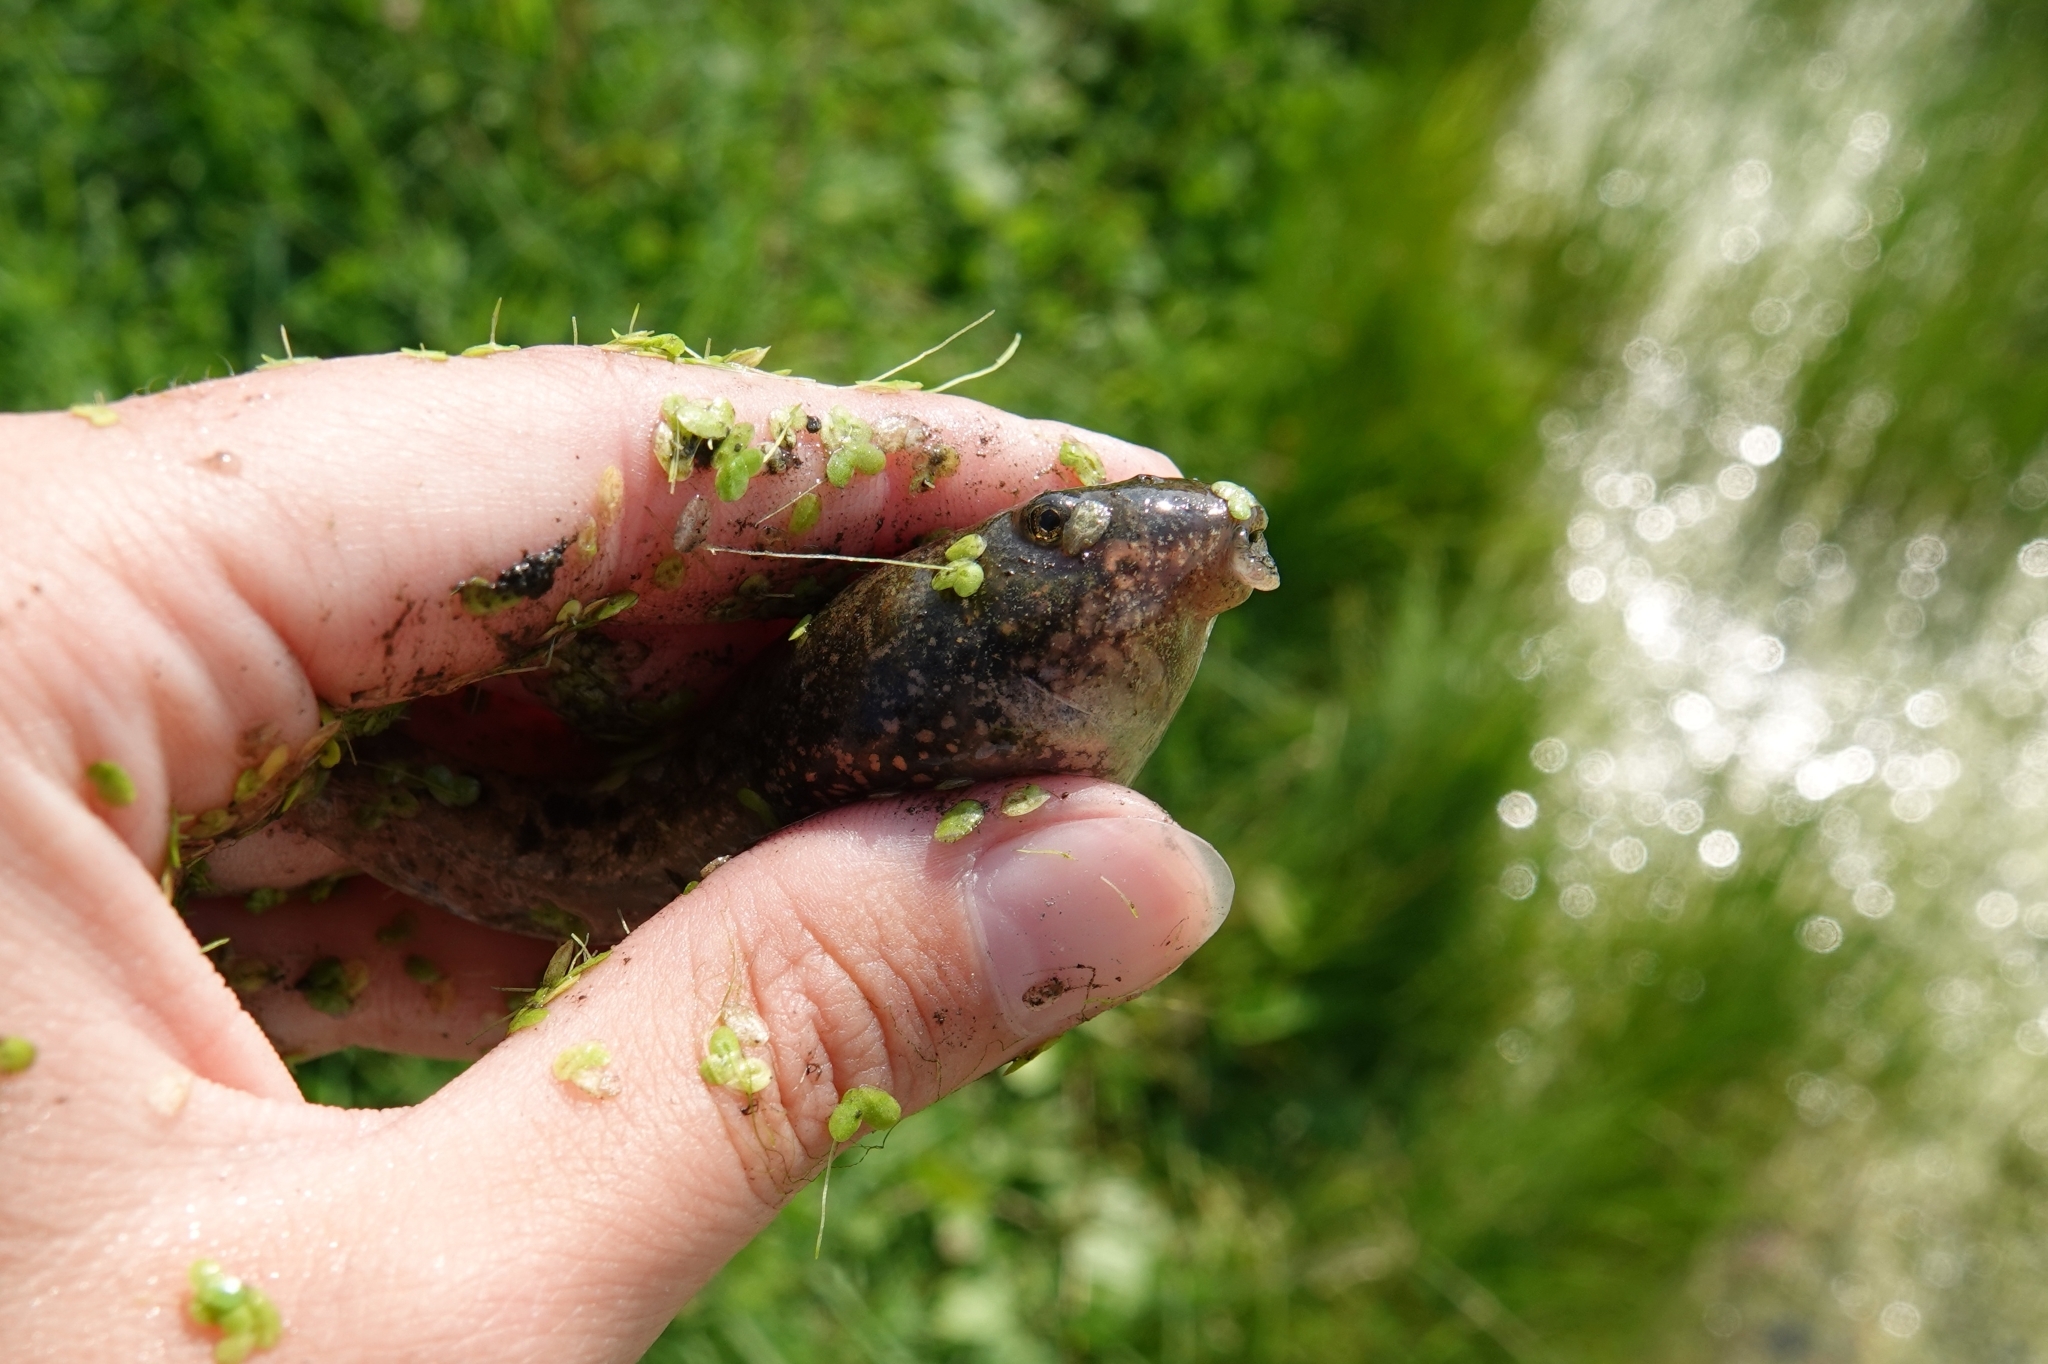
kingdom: Animalia
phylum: Chordata
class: Amphibia
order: Anura
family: Ranidae
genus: Pelophylax
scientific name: Pelophylax ridibundus
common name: Marsh frog
